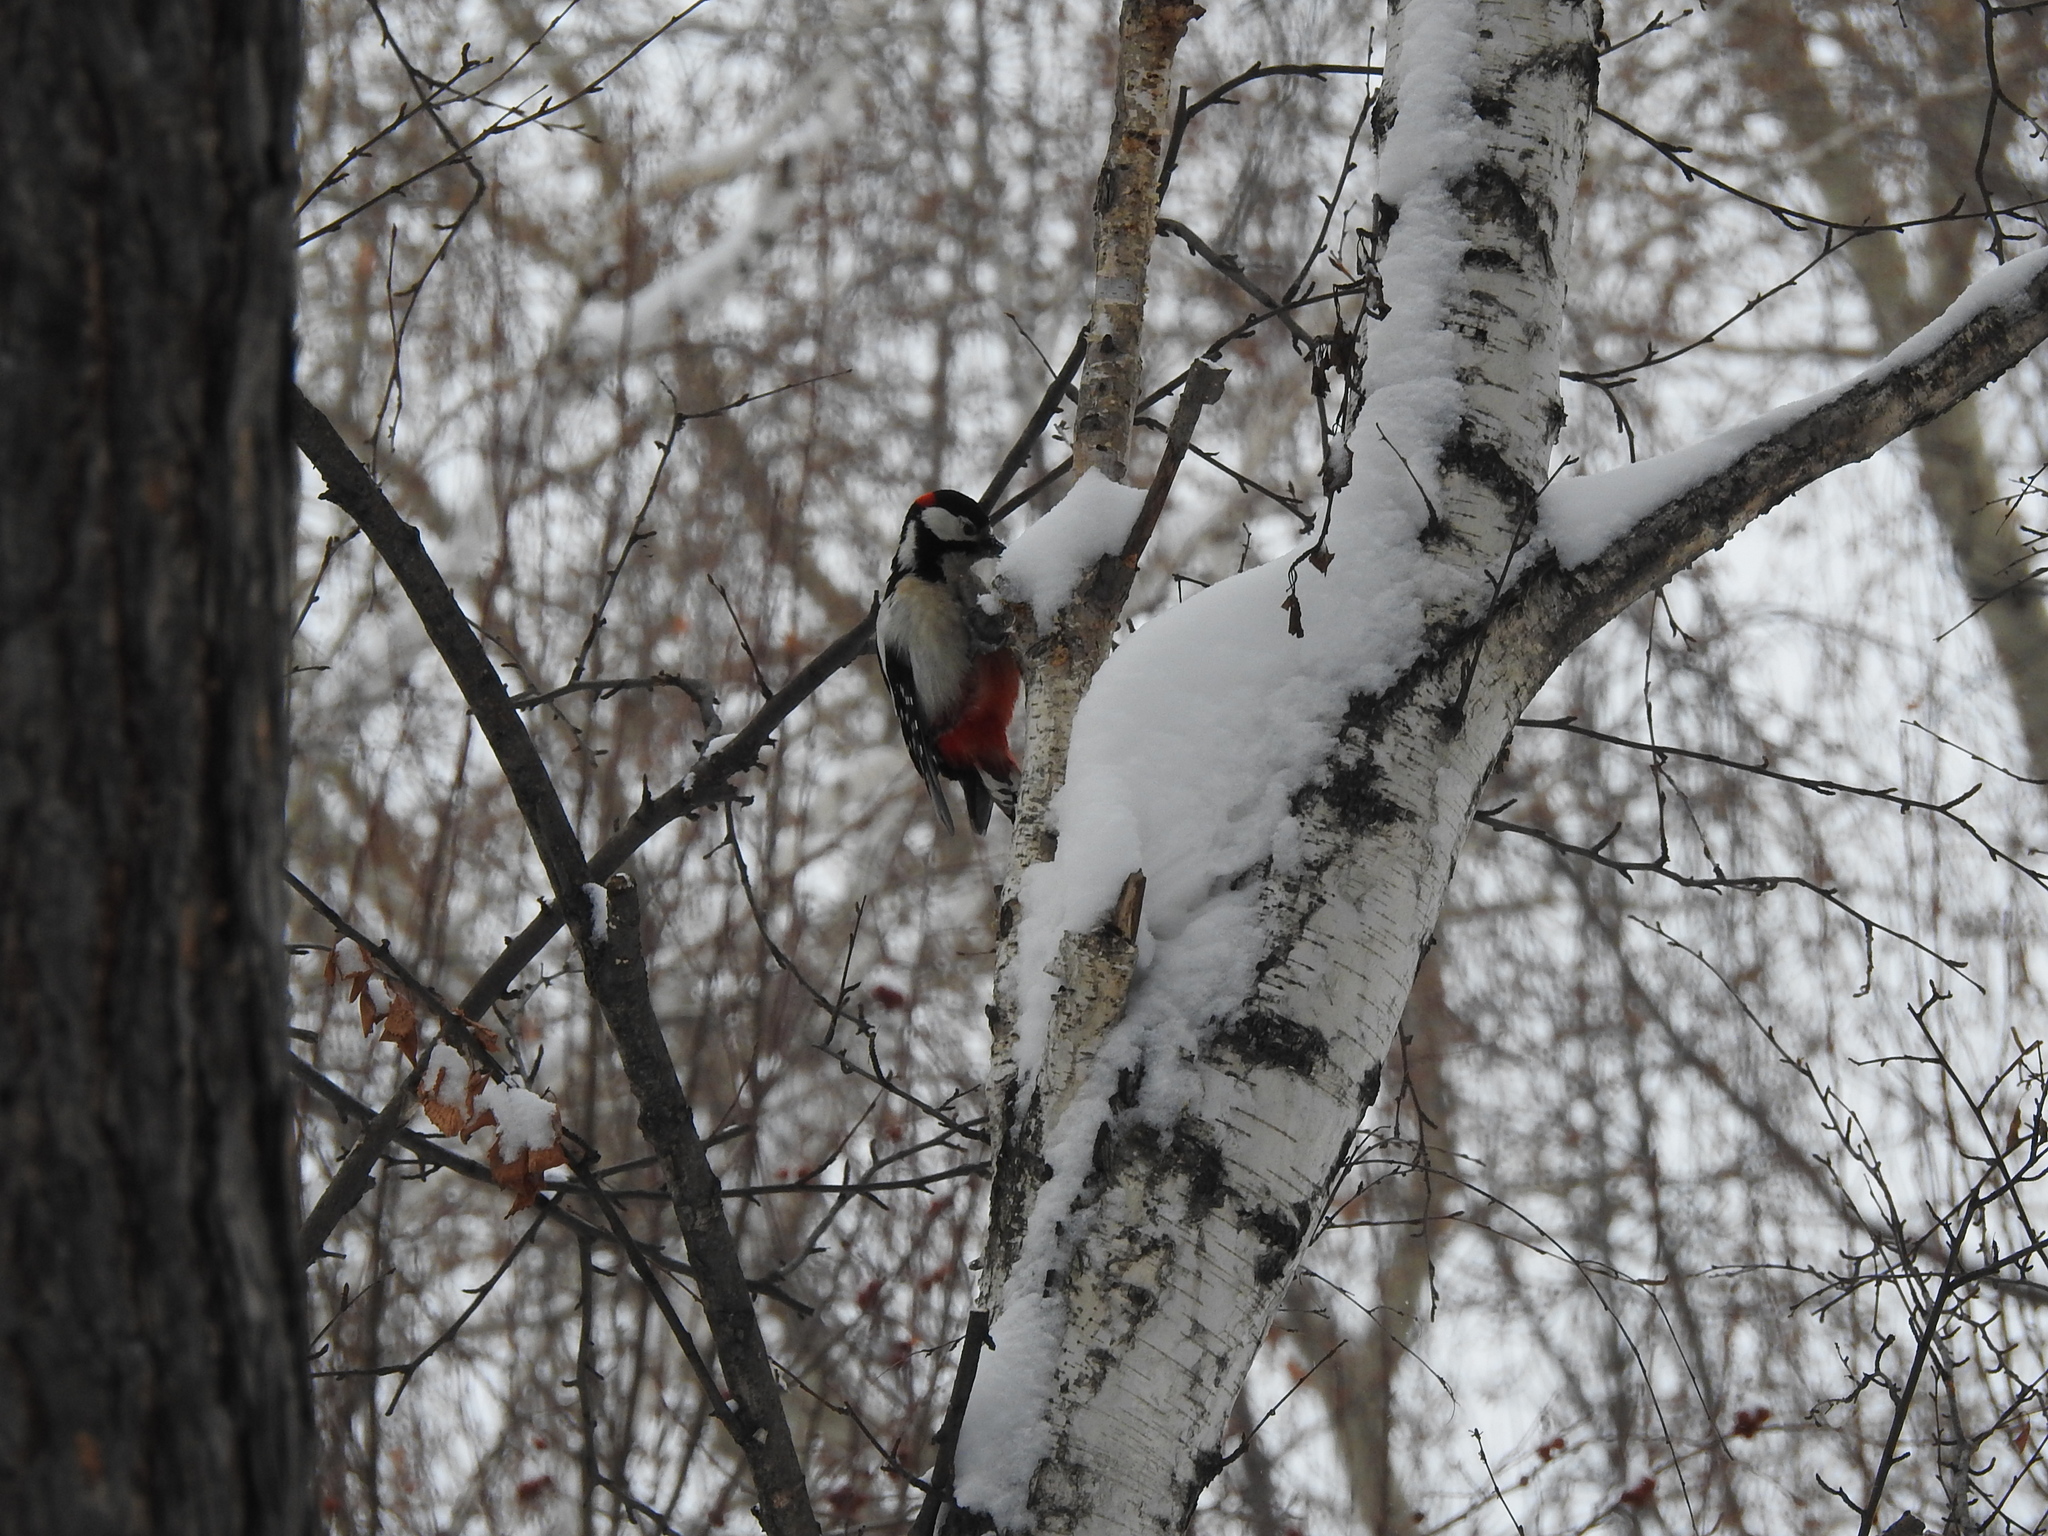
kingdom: Animalia
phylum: Chordata
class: Aves
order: Piciformes
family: Picidae
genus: Dendrocopos
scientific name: Dendrocopos major
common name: Great spotted woodpecker
